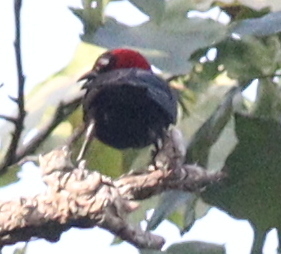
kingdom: Animalia
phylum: Chordata
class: Aves
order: Passeriformes
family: Ploceidae
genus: Malimbus
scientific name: Malimbus rubricollis
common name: Red-headed malimbe
